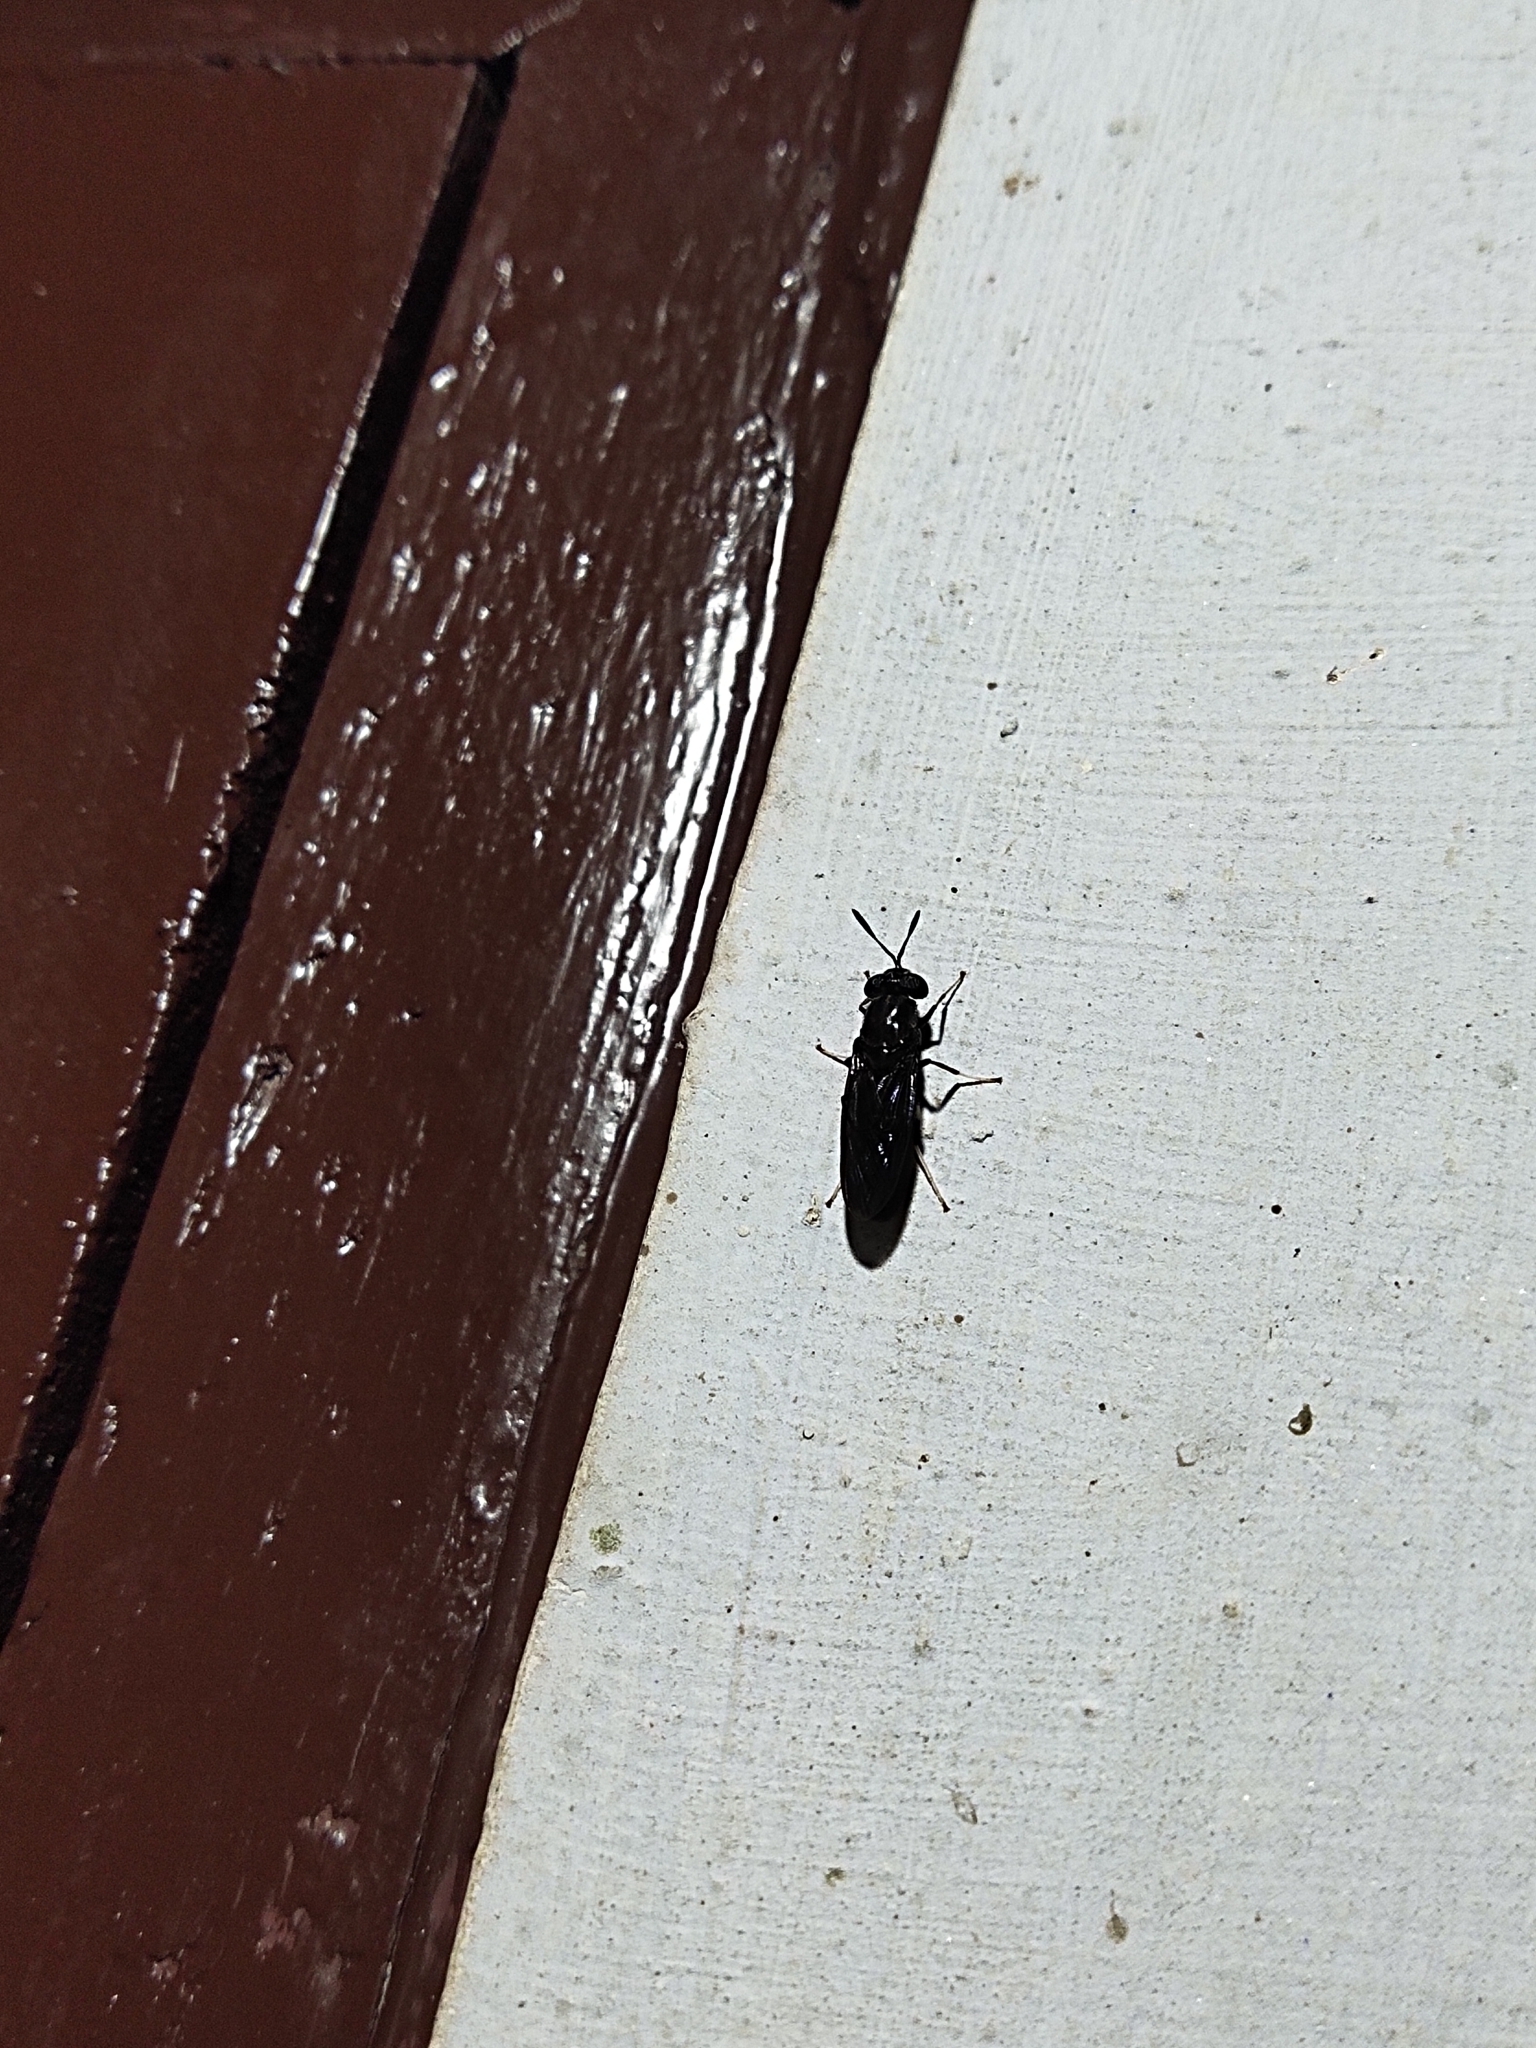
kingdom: Animalia
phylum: Arthropoda
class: Insecta
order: Diptera
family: Stratiomyidae
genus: Hermetia
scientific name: Hermetia illucens
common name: Black soldier fly
